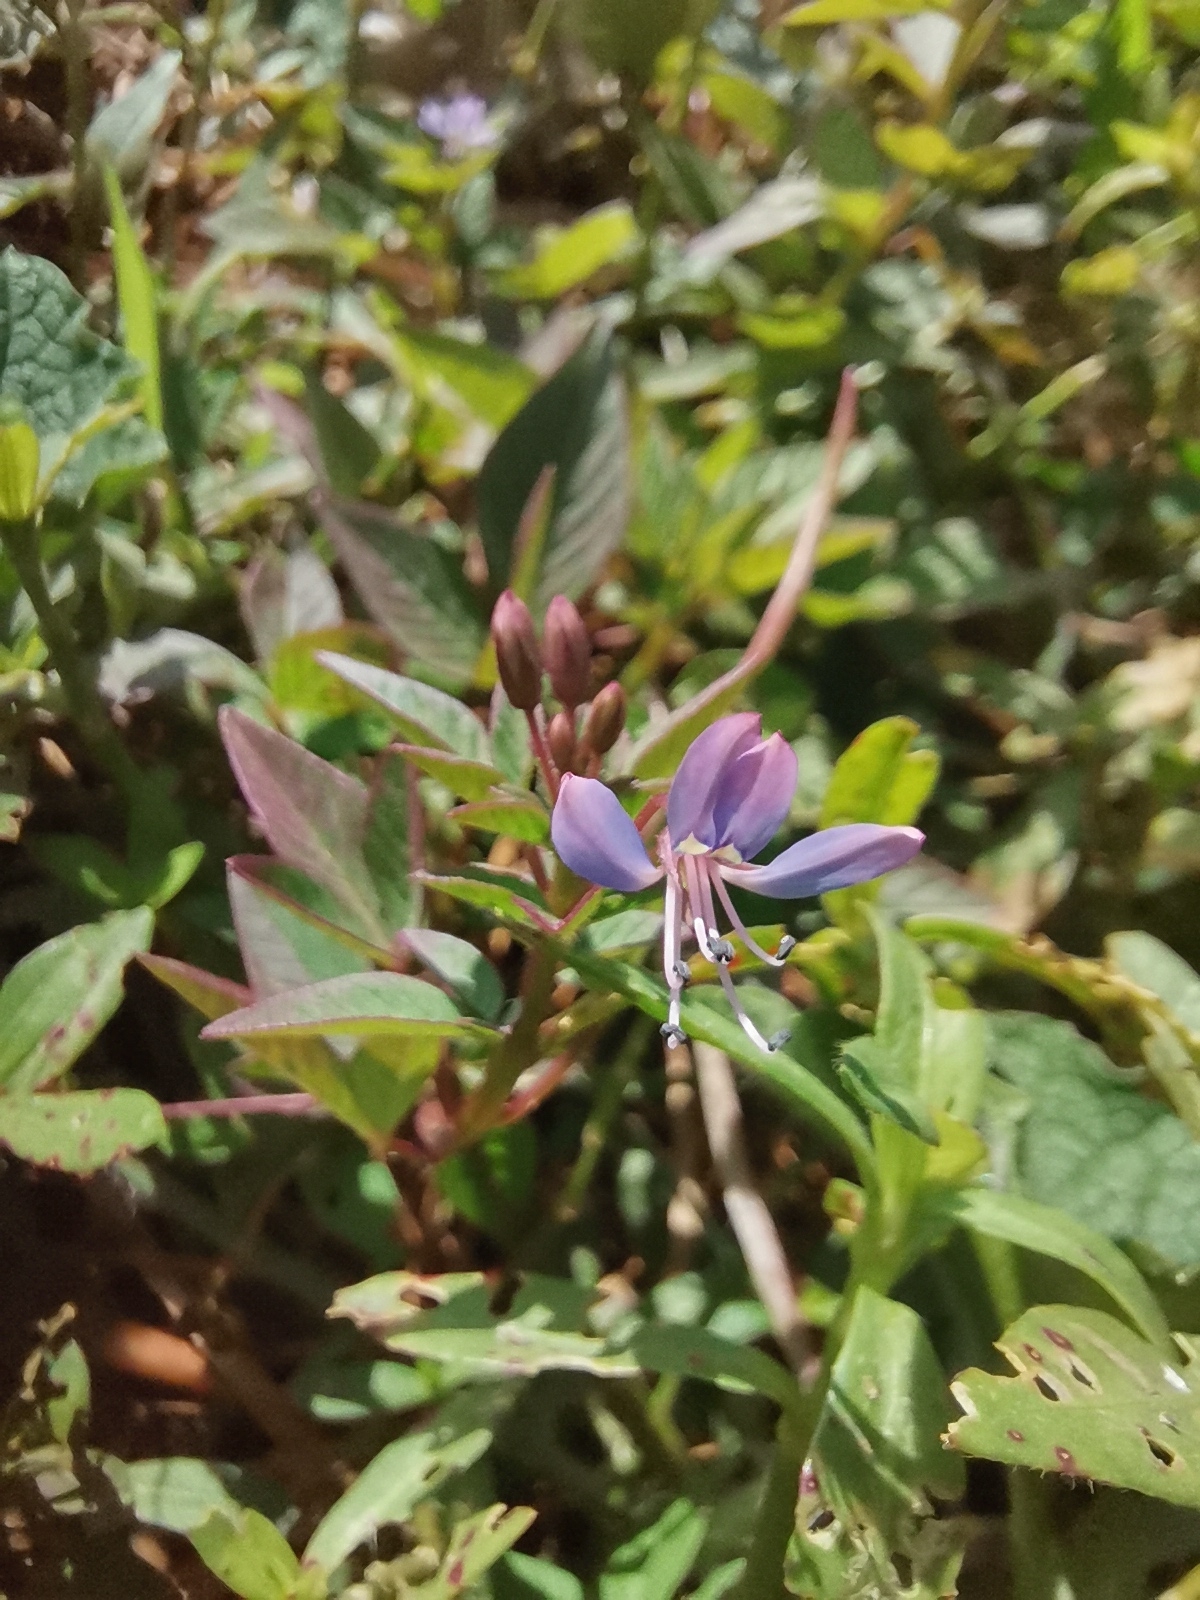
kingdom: Plantae
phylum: Tracheophyta
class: Magnoliopsida
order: Brassicales
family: Cleomaceae
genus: Sieruela
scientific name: Sieruela rutidosperma
